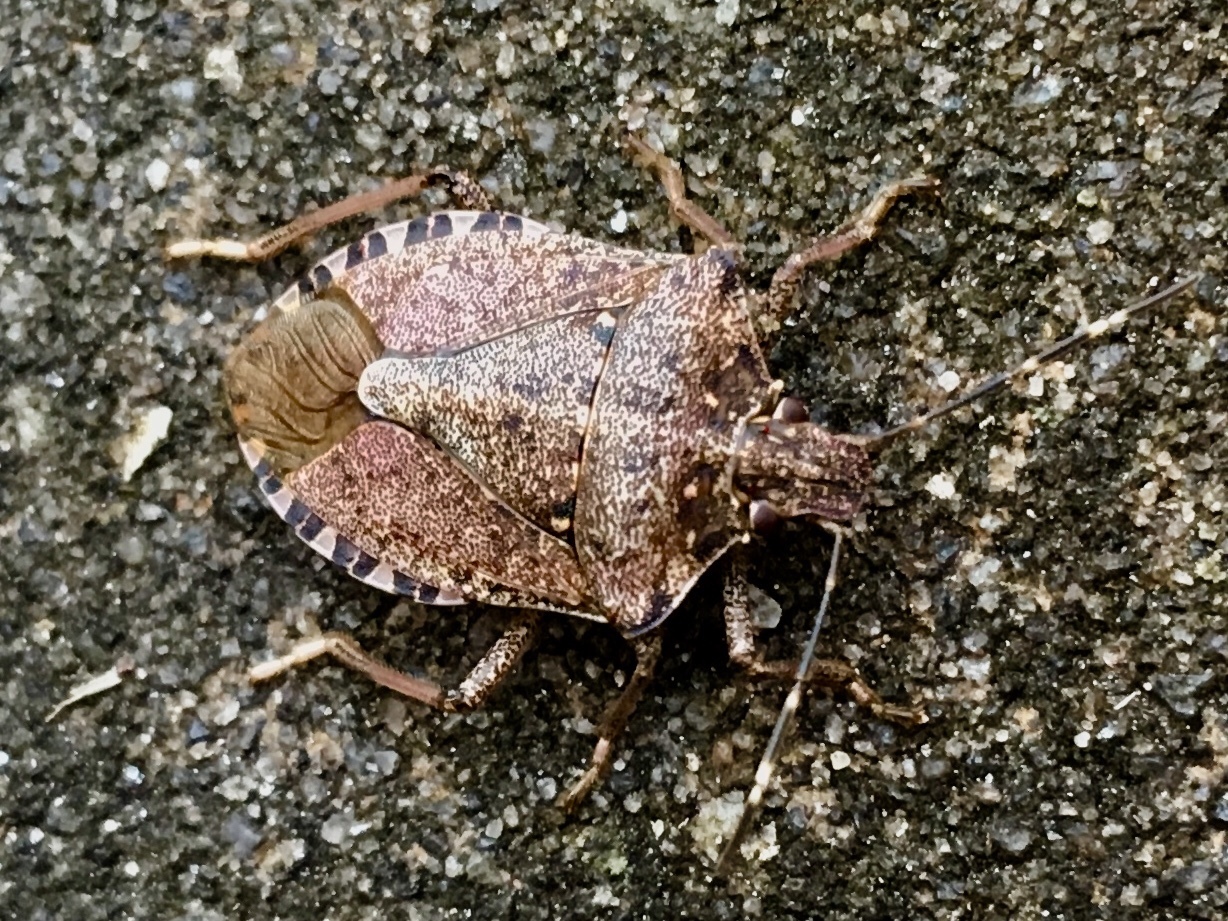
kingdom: Animalia
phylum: Arthropoda
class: Insecta
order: Hemiptera
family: Pentatomidae
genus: Halyomorpha
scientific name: Halyomorpha halys
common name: Brown marmorated stink bug
